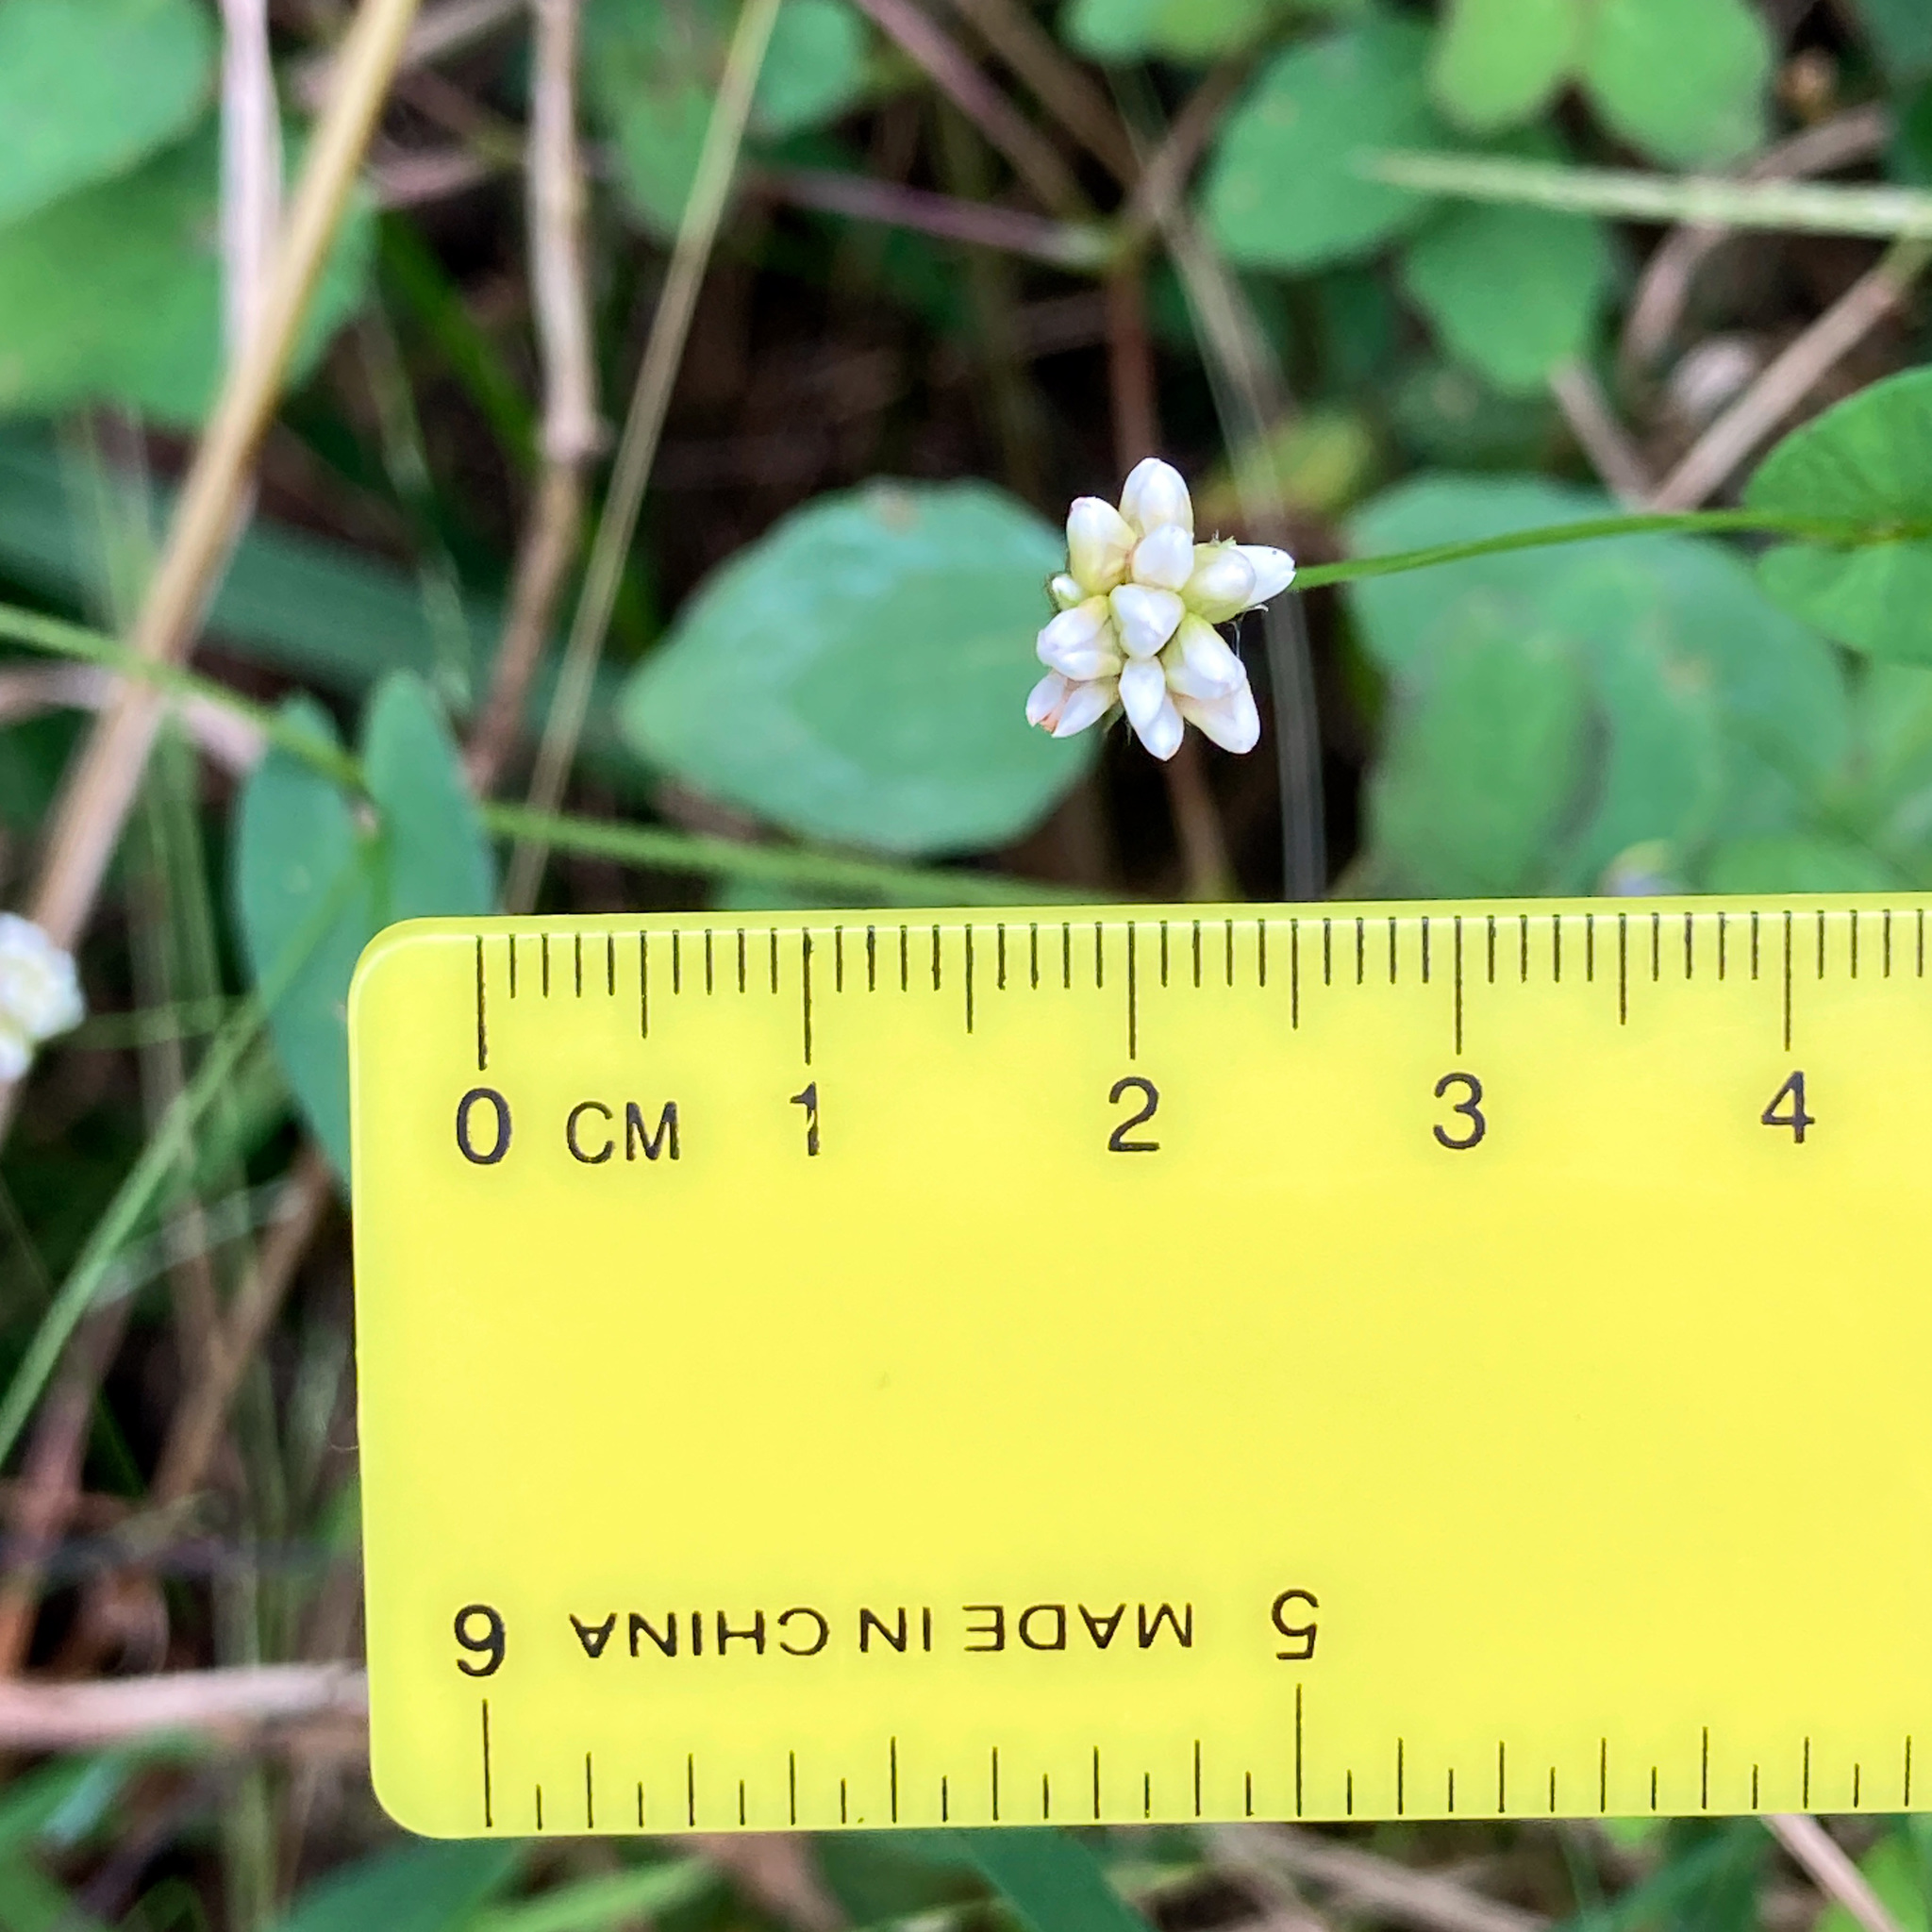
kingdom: Plantae
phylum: Tracheophyta
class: Magnoliopsida
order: Caryophyllales
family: Polygonaceae
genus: Persicaria
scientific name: Persicaria sagittata
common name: American tearthumb
